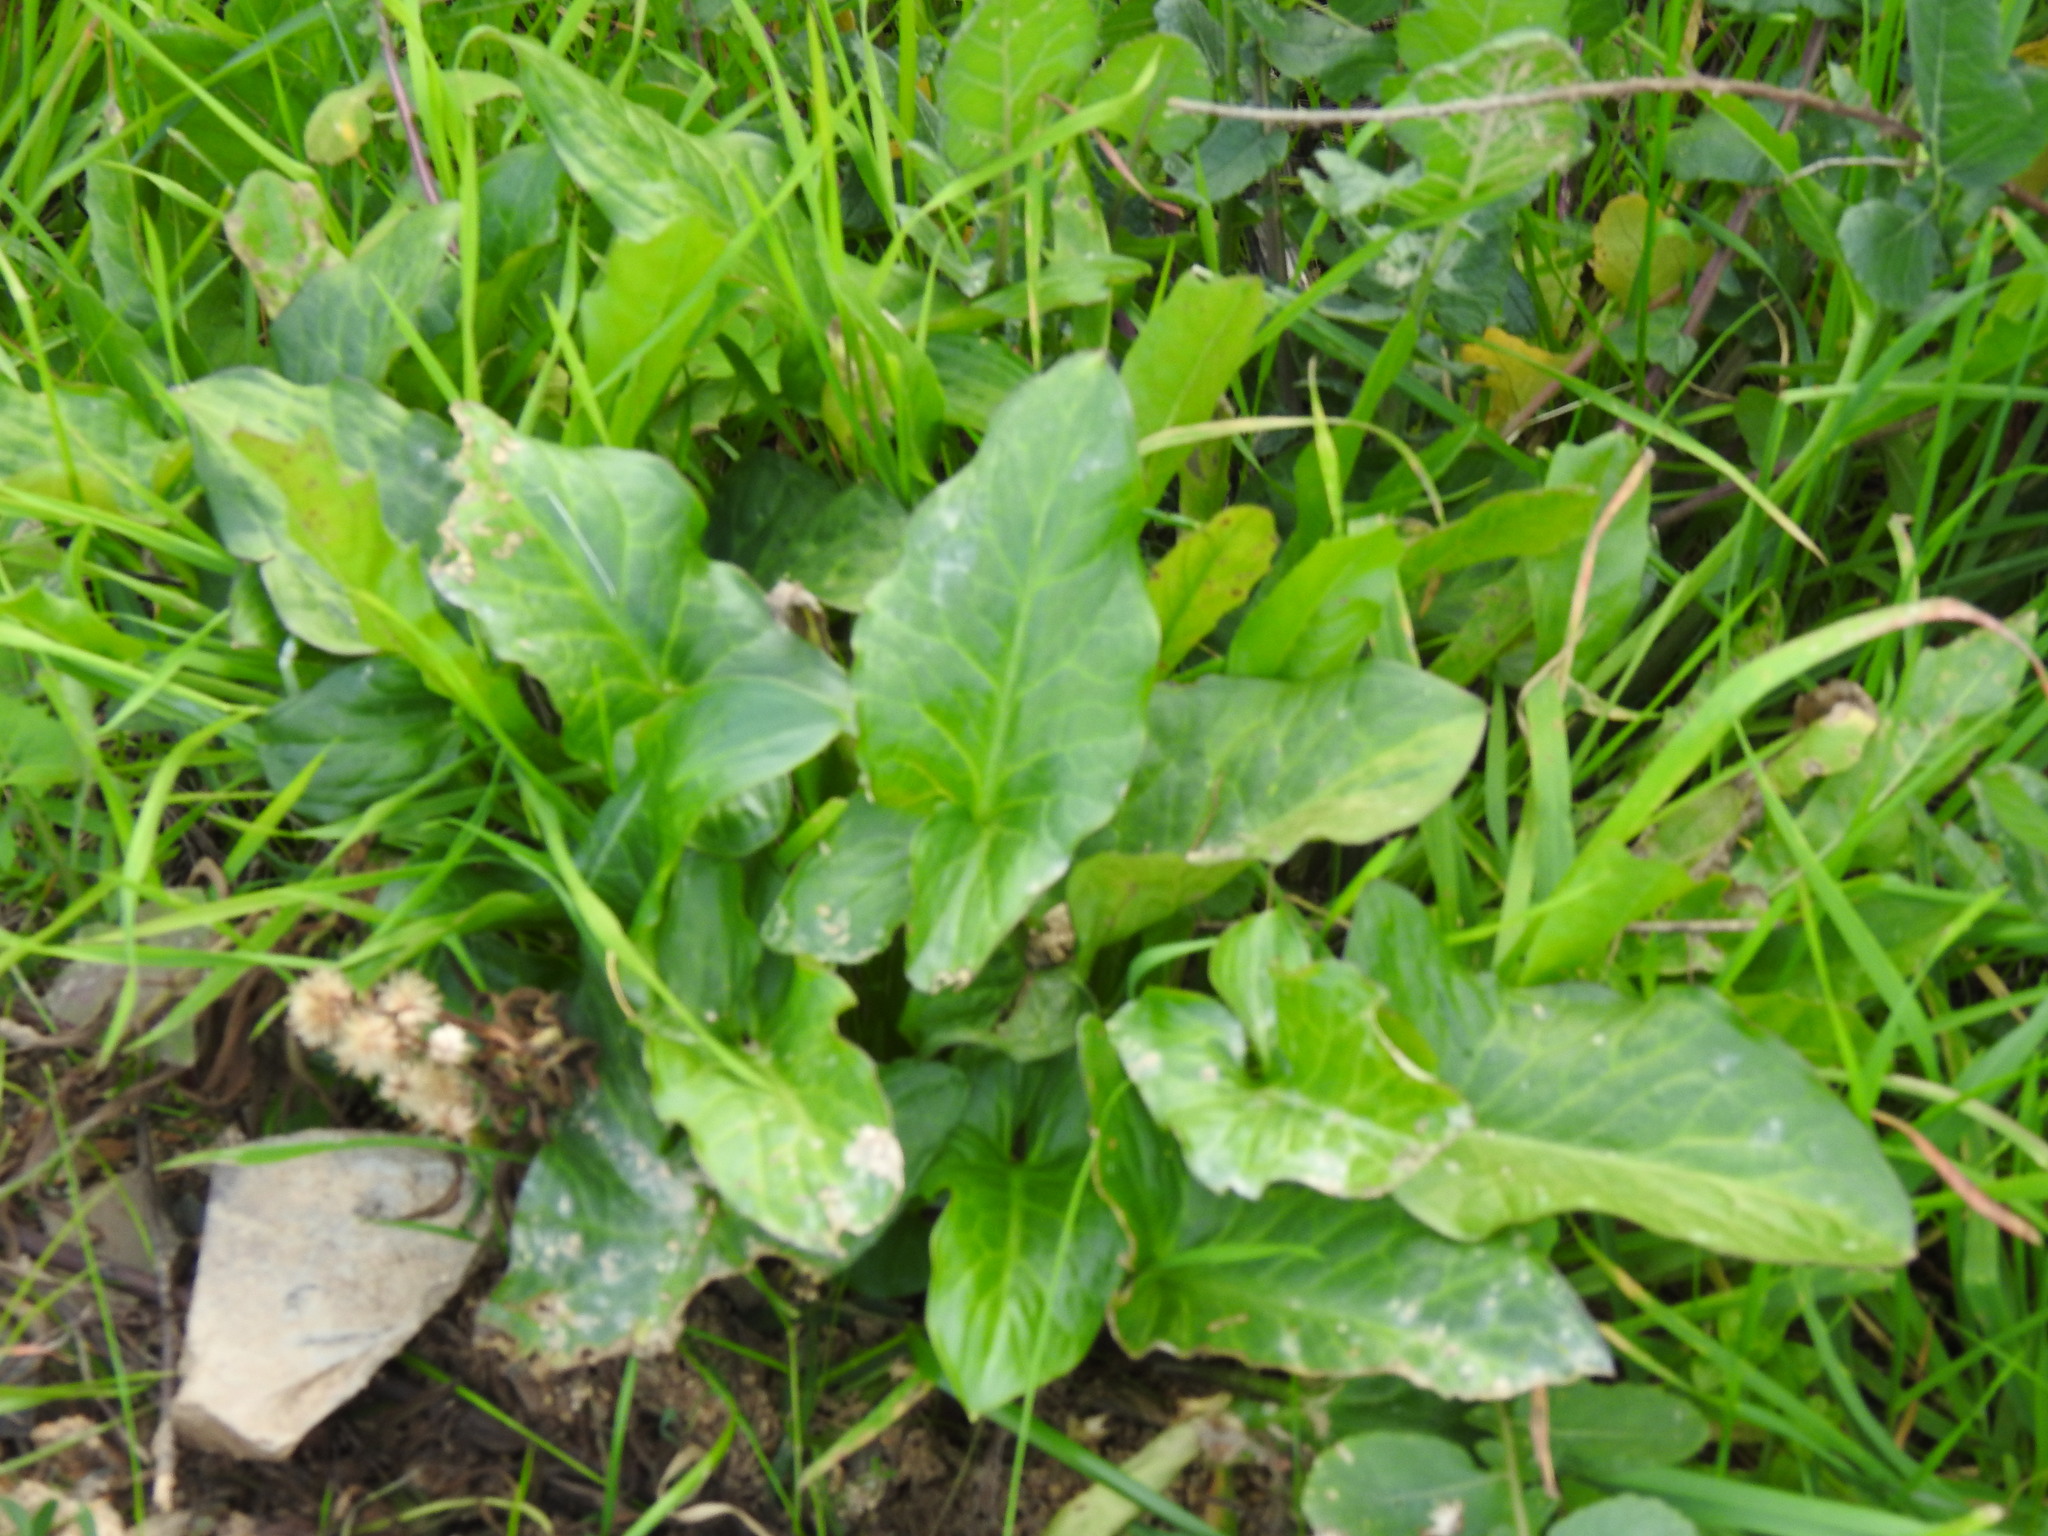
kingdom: Plantae
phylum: Tracheophyta
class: Liliopsida
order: Alismatales
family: Araceae
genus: Arum
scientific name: Arum italicum
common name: Italian lords-and-ladies
